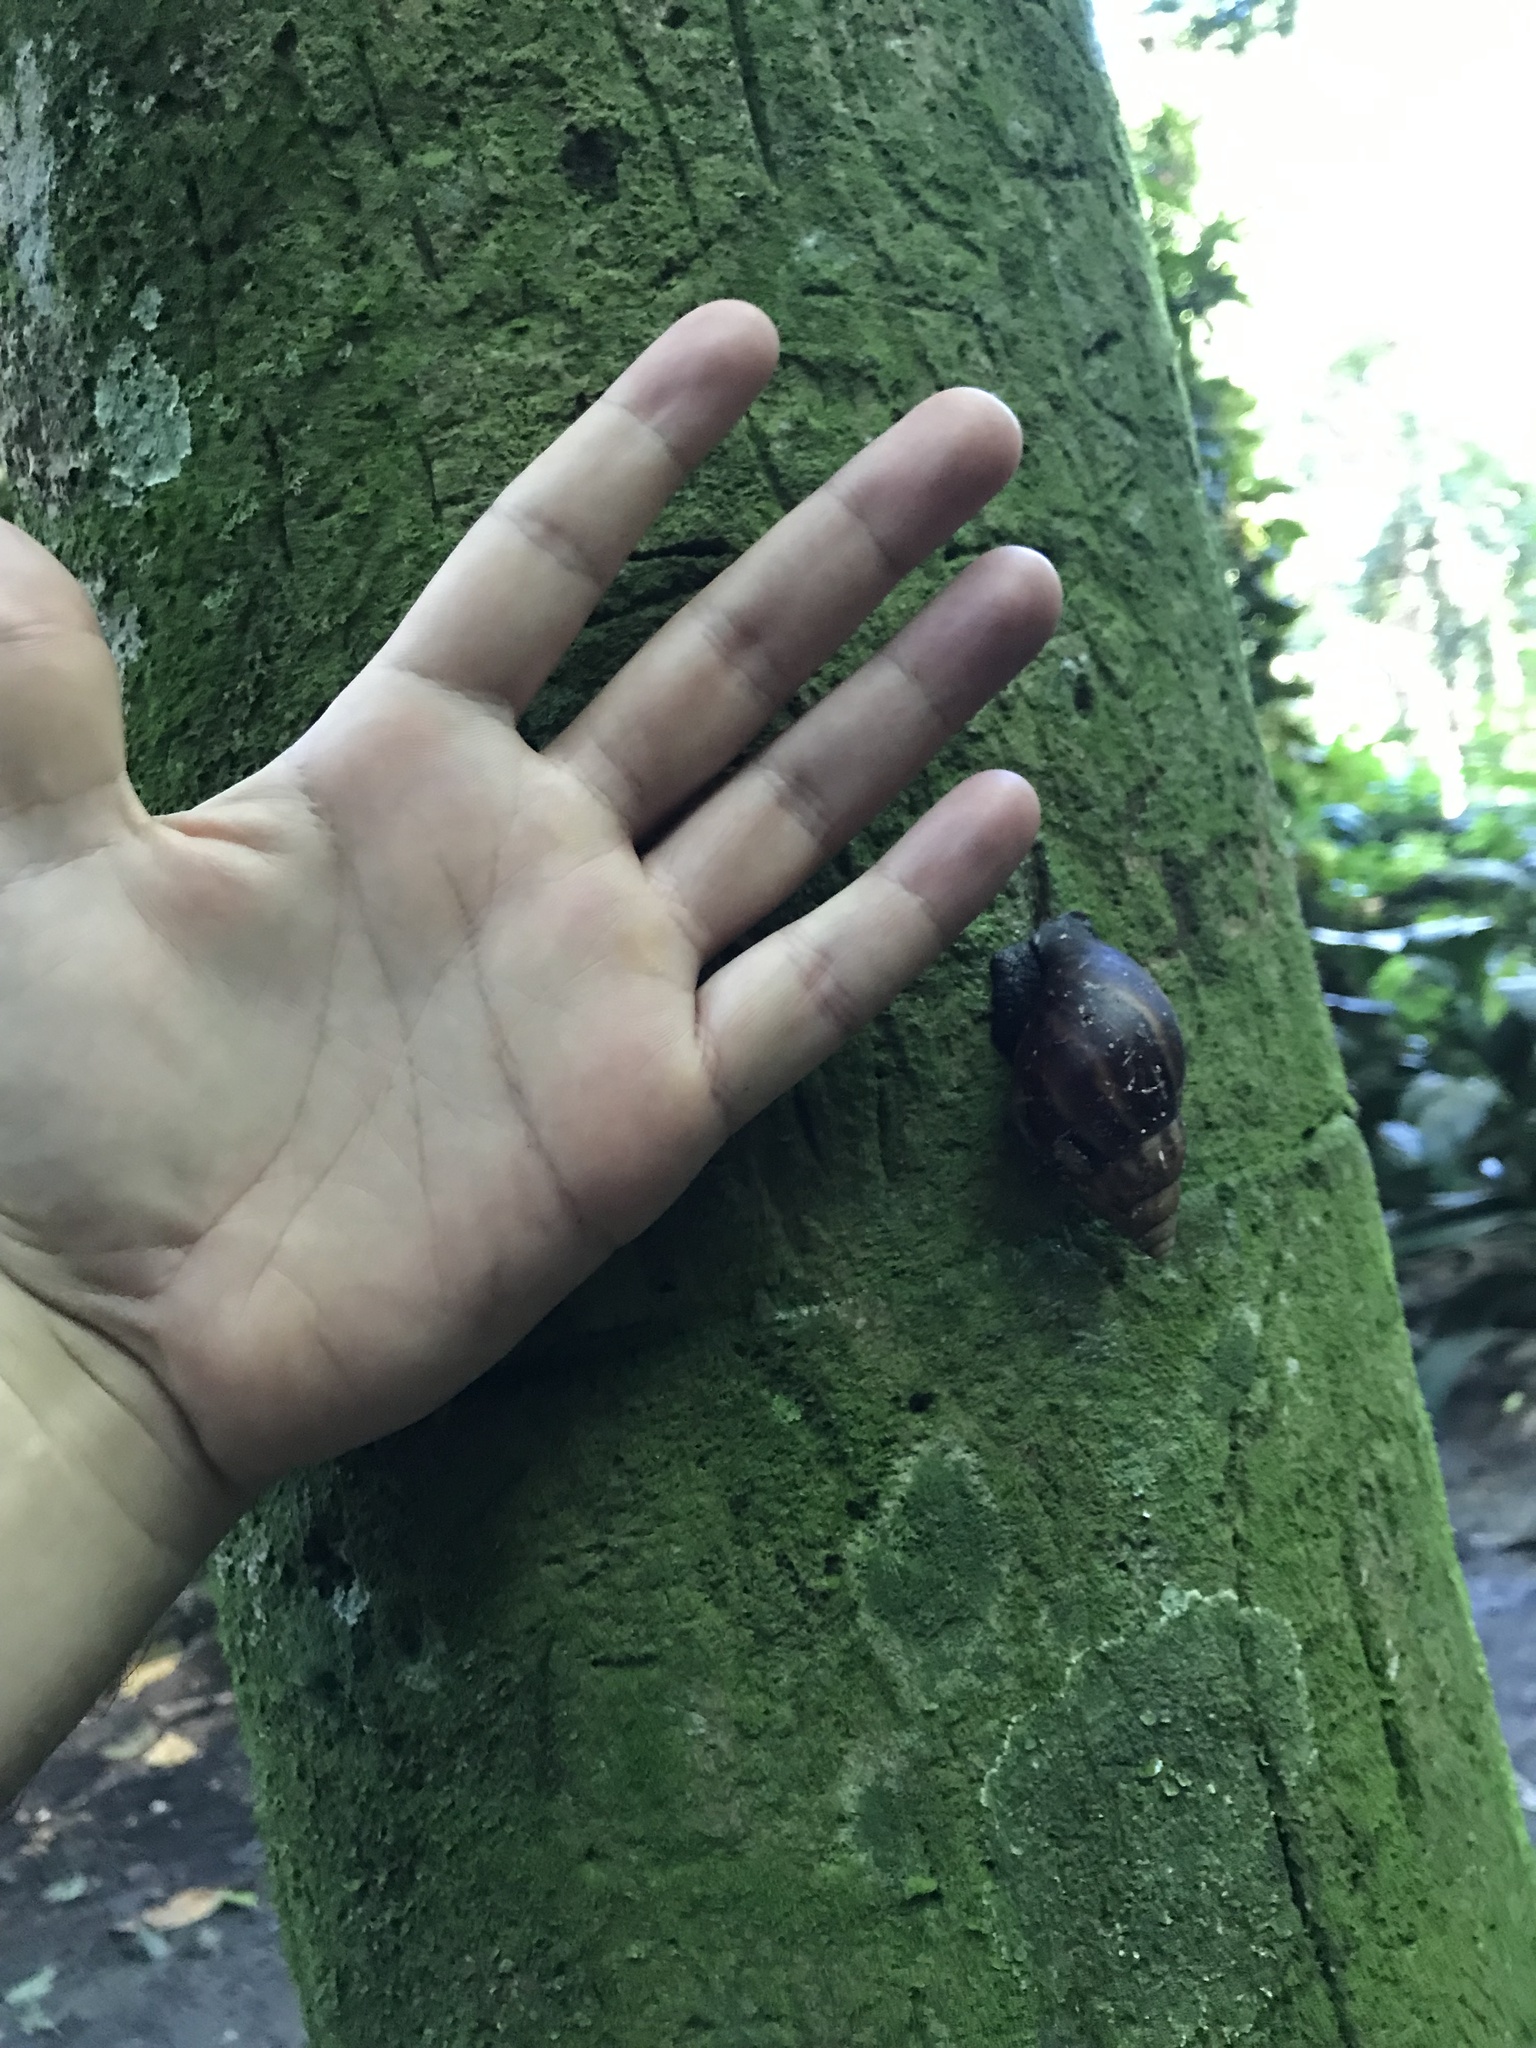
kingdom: Animalia
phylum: Mollusca
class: Gastropoda
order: Stylommatophora
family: Achatinidae
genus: Lissachatina
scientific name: Lissachatina fulica
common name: Giant african snail
